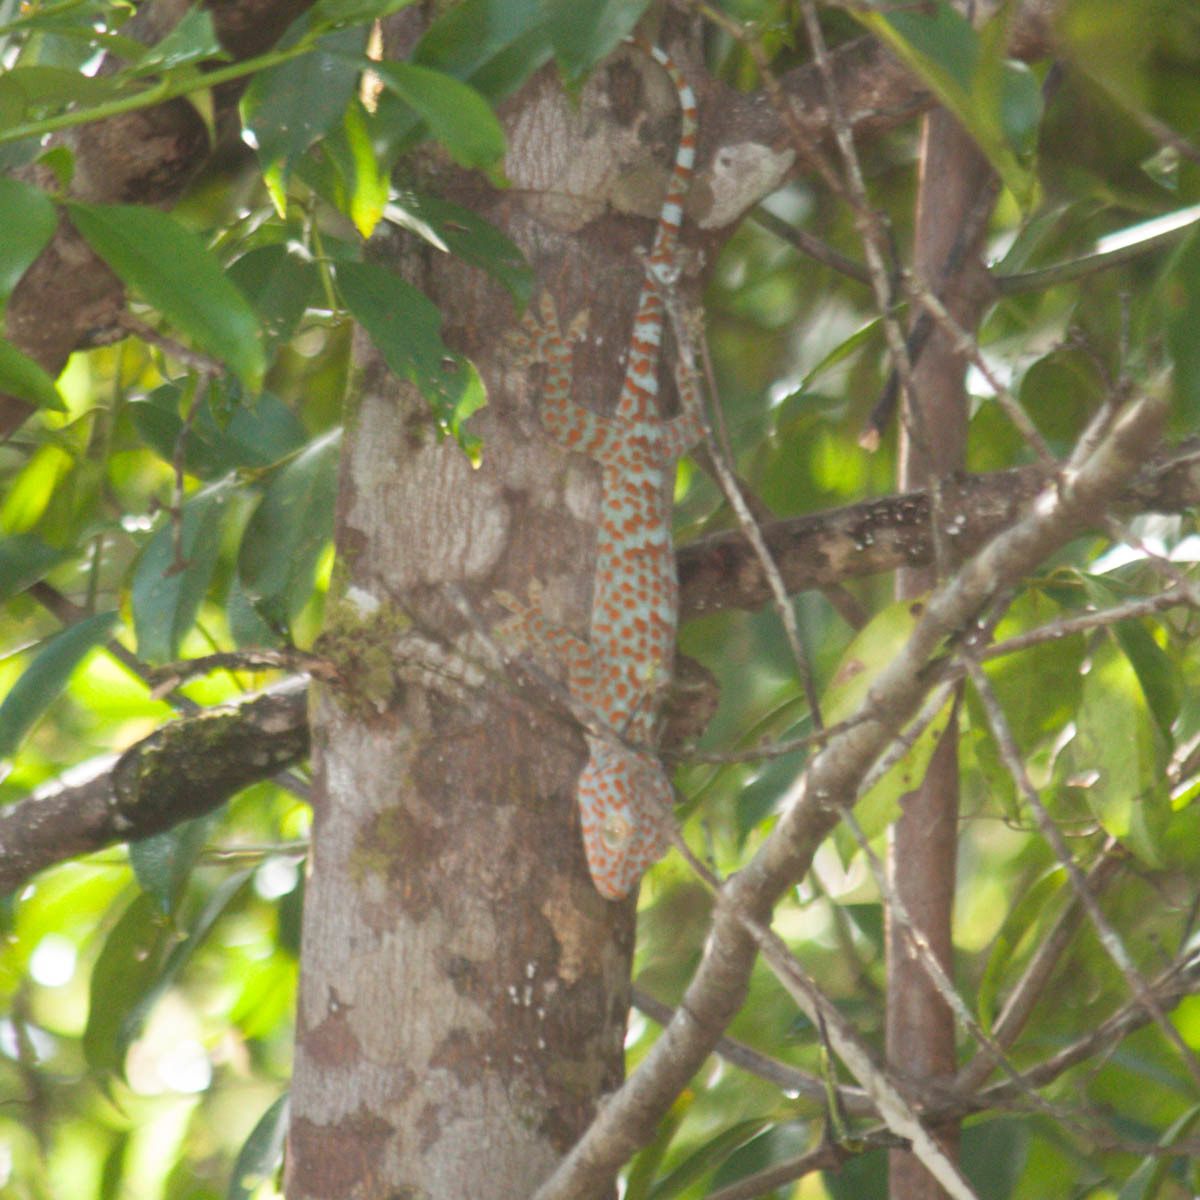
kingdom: Animalia
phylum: Chordata
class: Squamata
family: Gekkonidae
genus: Gekko
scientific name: Gekko gecko
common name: Tokay gecko
